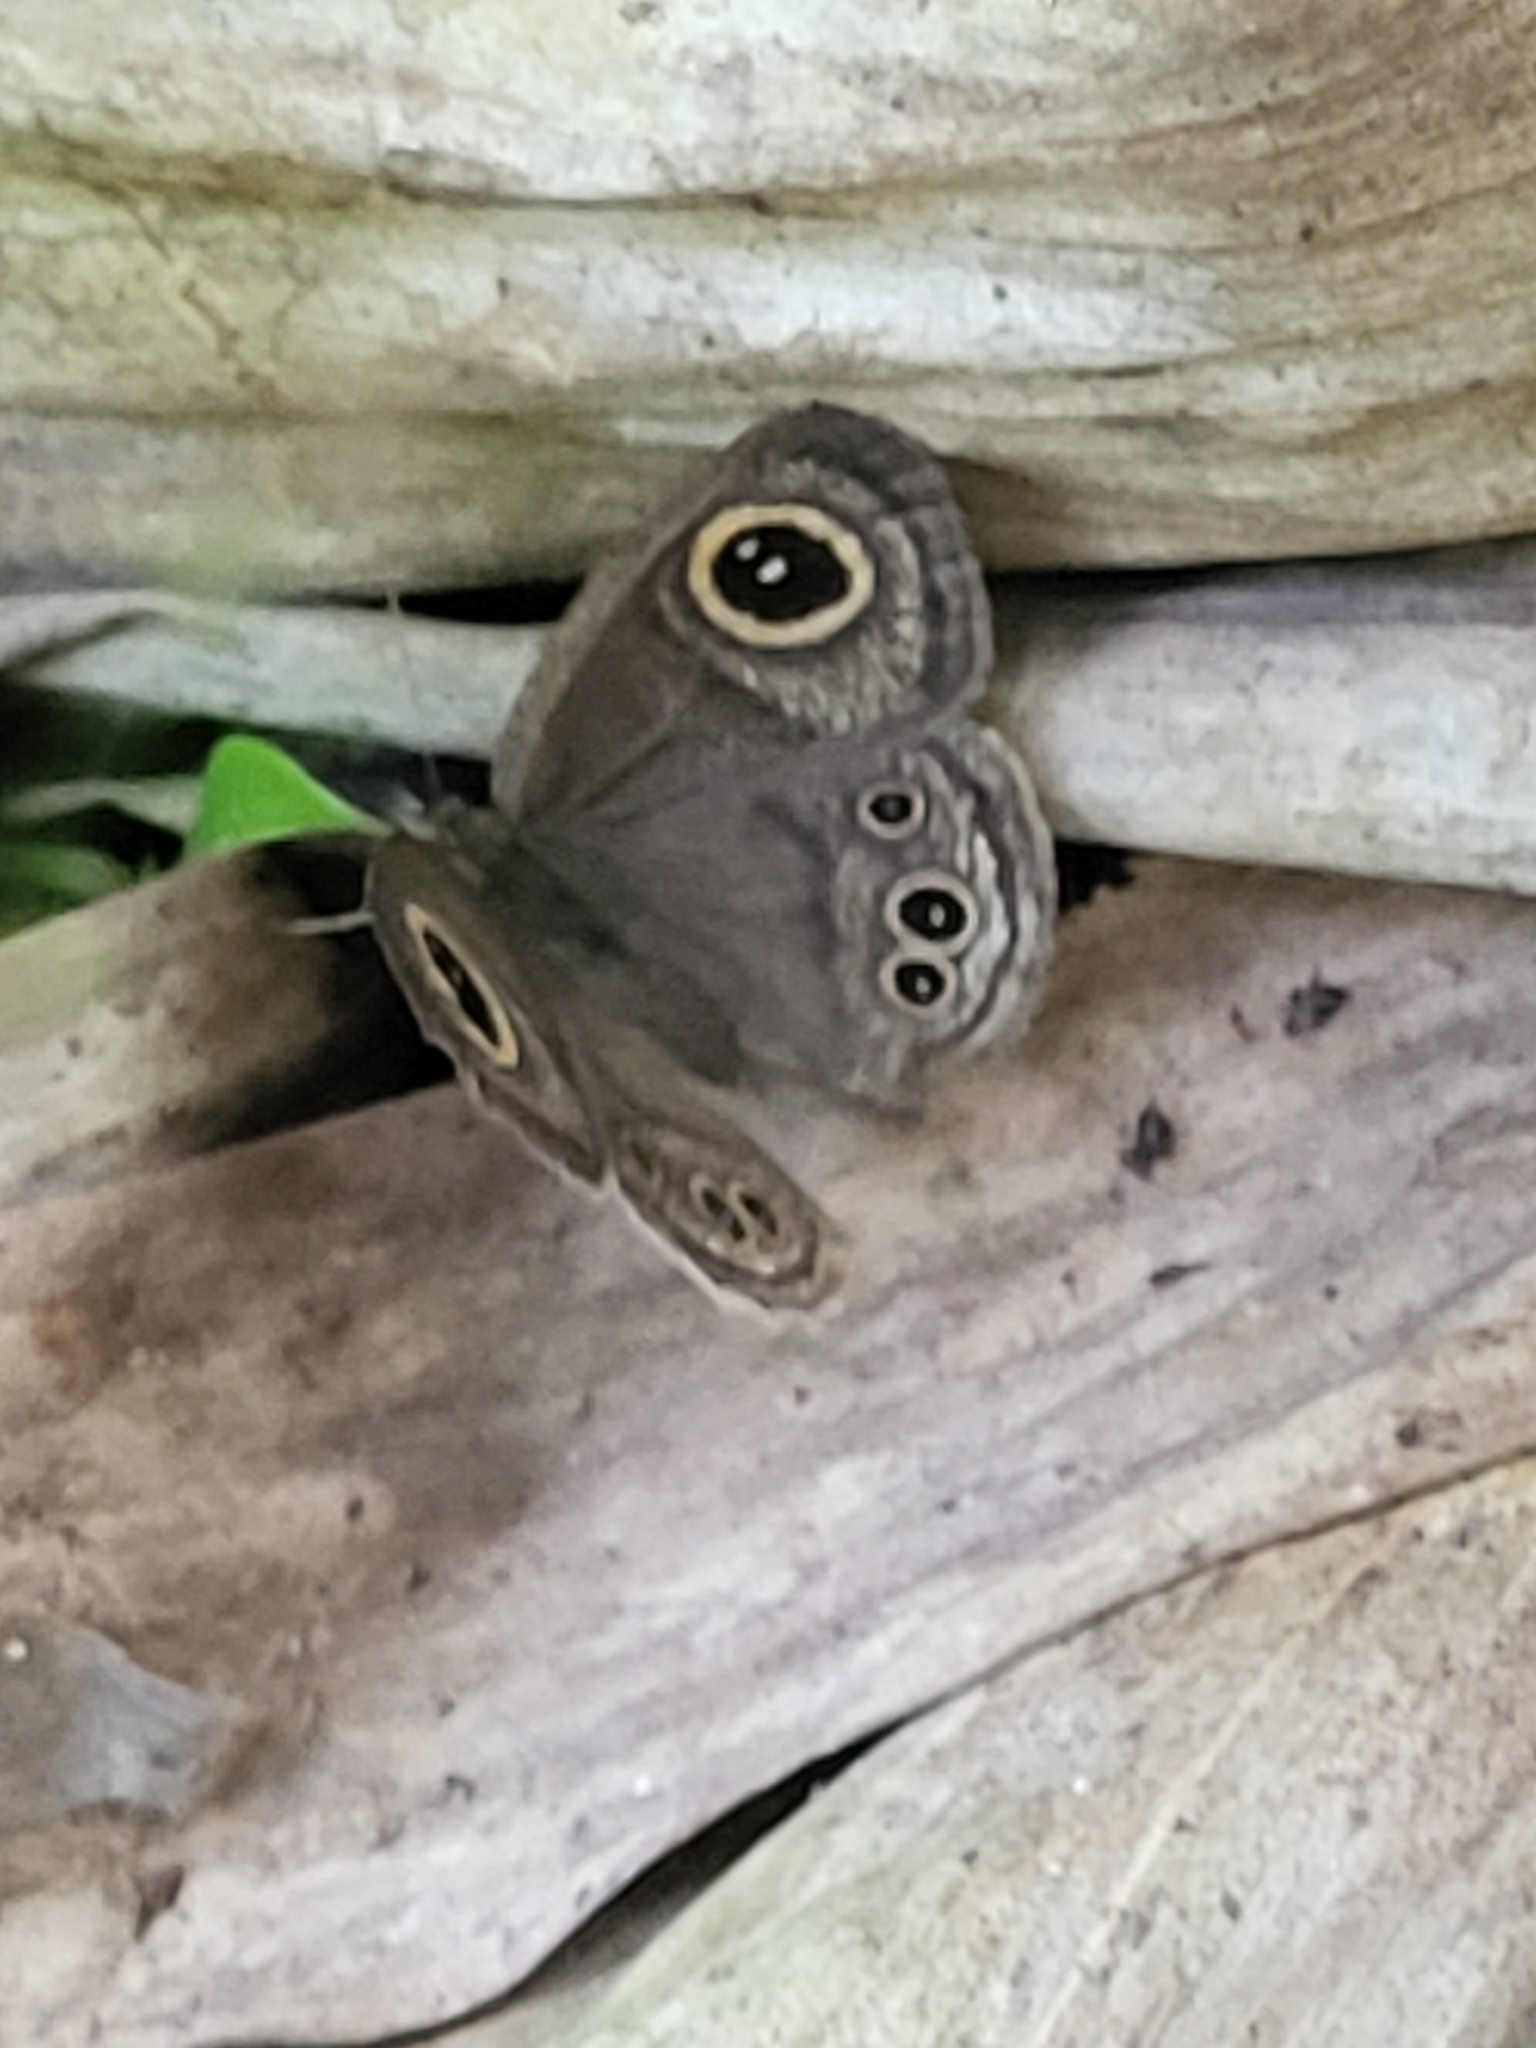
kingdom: Animalia
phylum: Arthropoda
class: Insecta
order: Lepidoptera
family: Nymphalidae
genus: Ypthima
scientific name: Ypthima baldus
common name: Common five-ring
